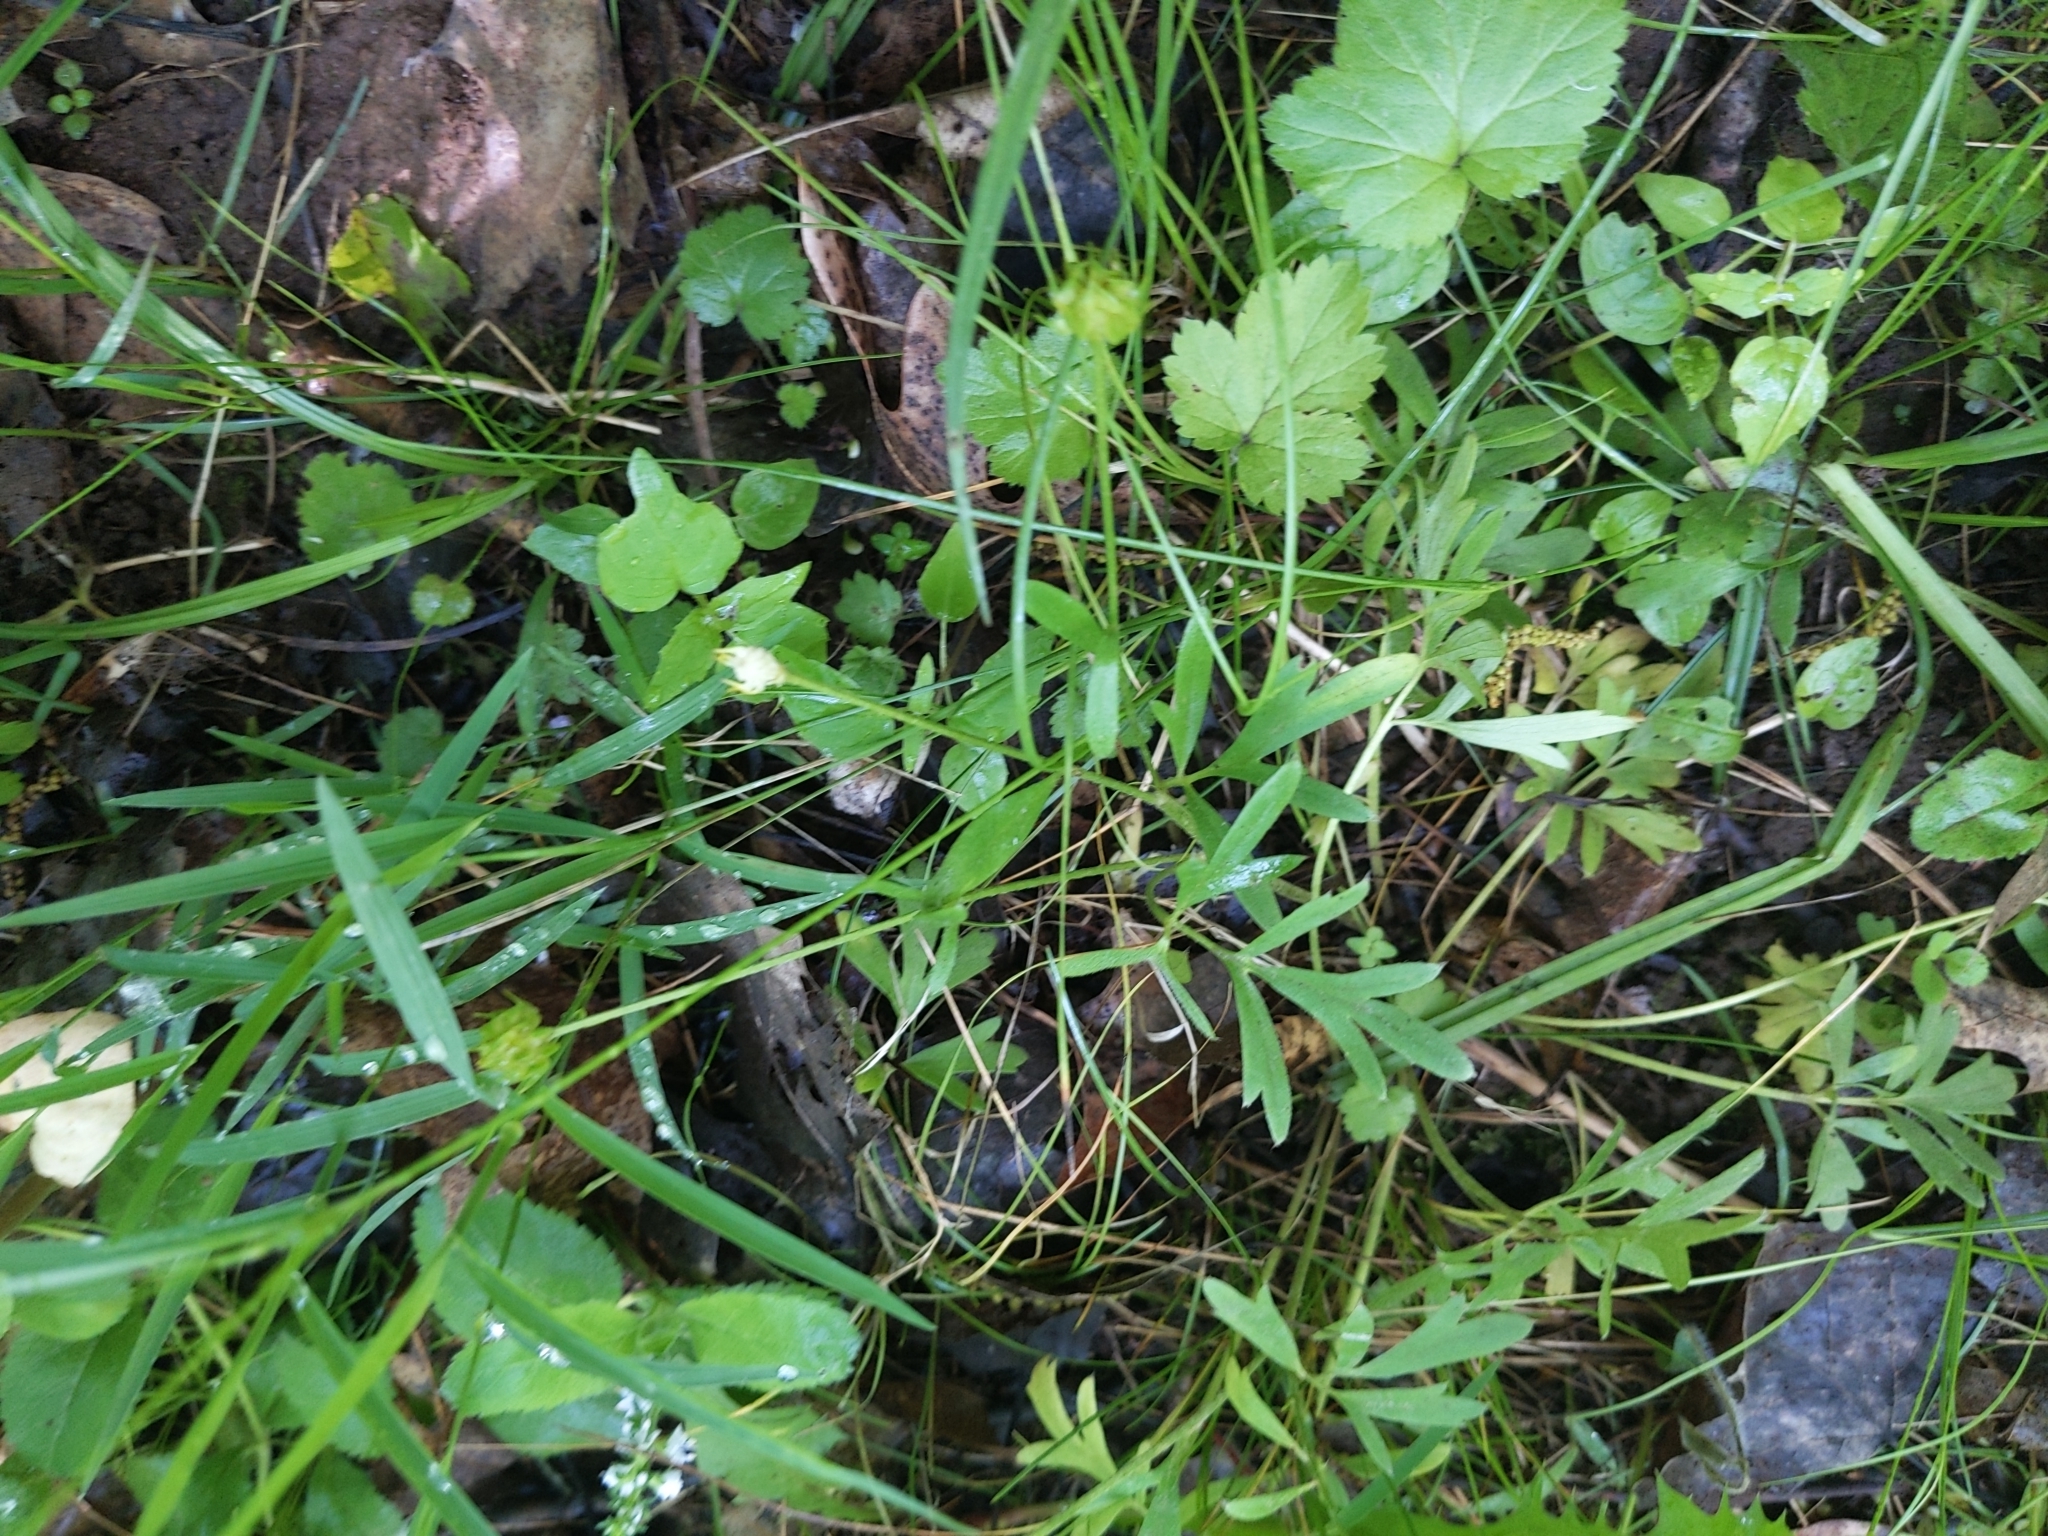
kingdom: Plantae
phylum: Tracheophyta
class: Magnoliopsida
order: Ranunculales
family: Ranunculaceae
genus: Ranunculus
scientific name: Ranunculus fascicularis
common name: Early buttercup
